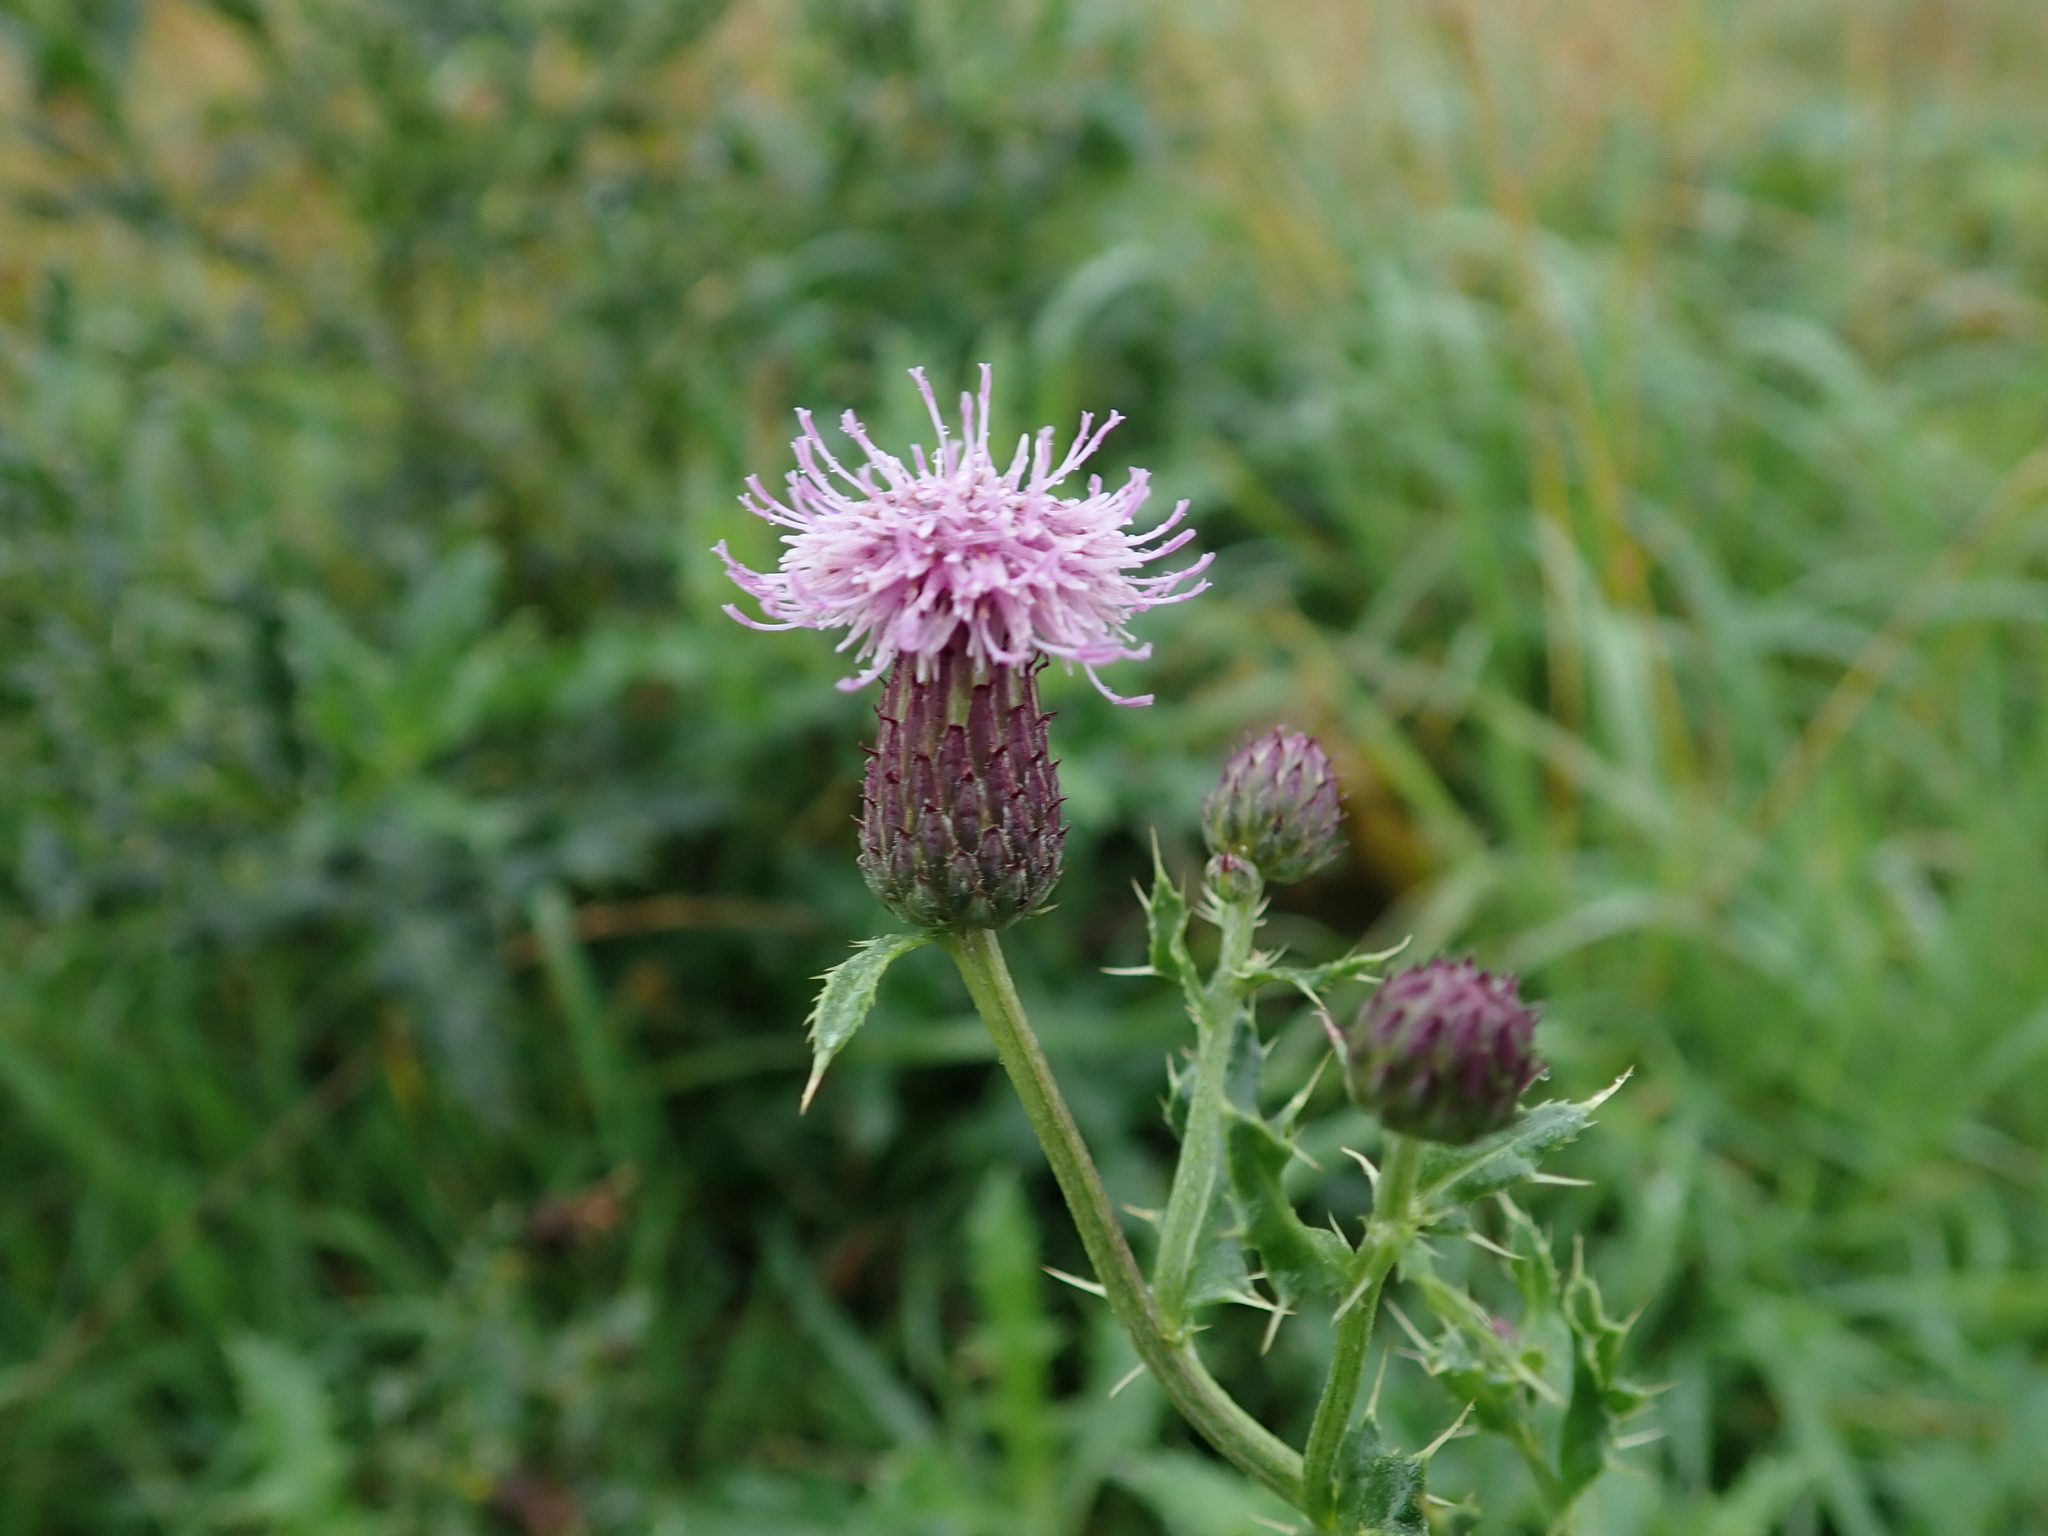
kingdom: Plantae
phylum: Tracheophyta
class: Magnoliopsida
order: Asterales
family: Asteraceae
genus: Cirsium
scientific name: Cirsium arvense
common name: Creeping thistle
